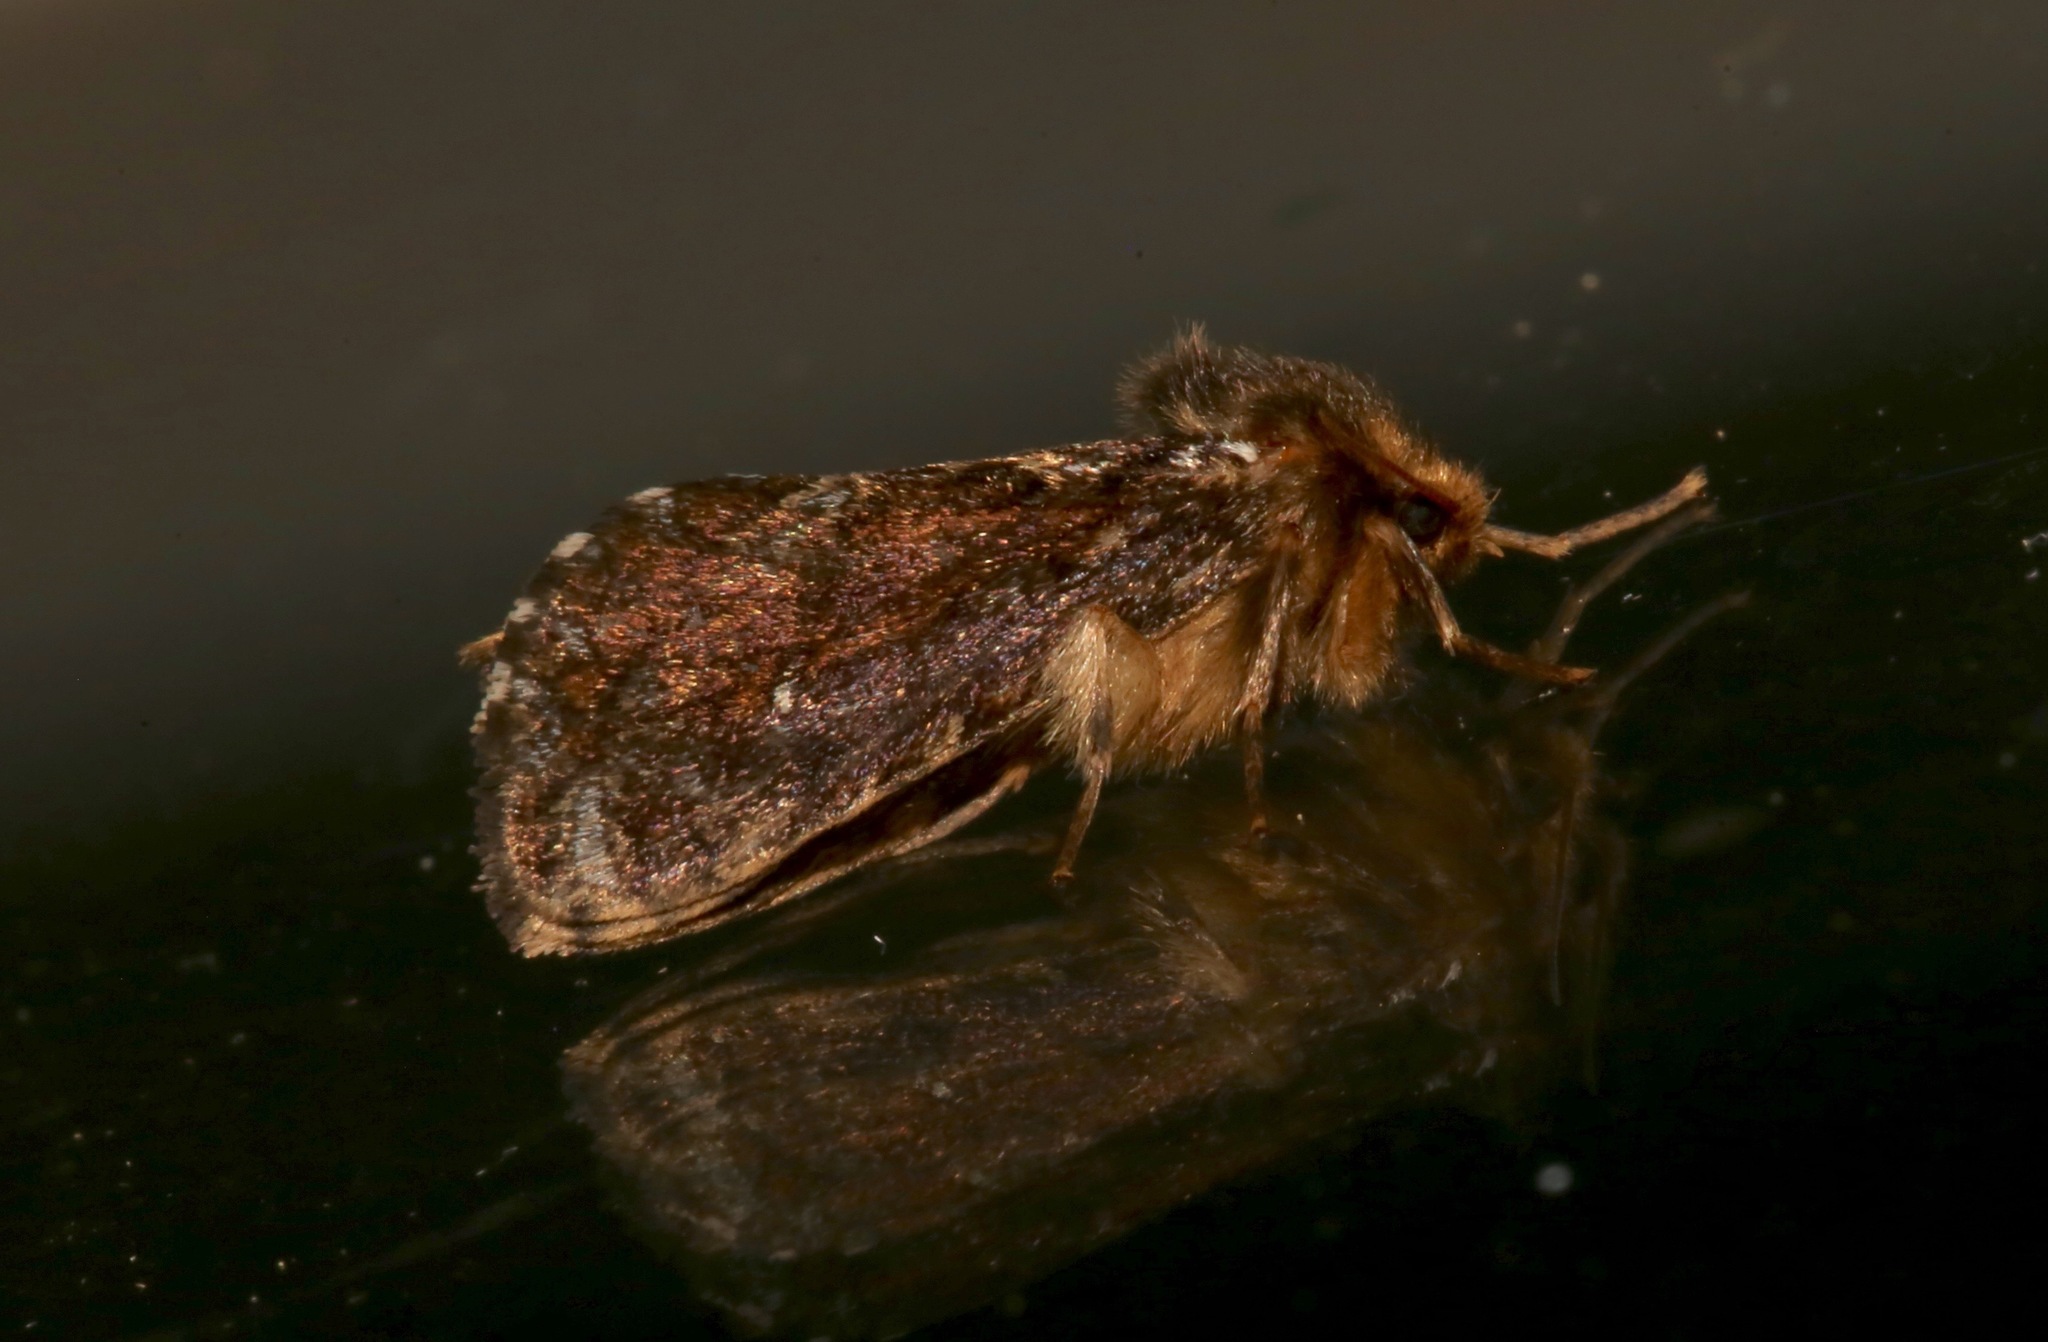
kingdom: Animalia
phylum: Arthropoda
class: Insecta
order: Lepidoptera
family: Hepialidae
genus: Korscheltellus
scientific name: Korscheltellus gracilis
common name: Conifer swift moth
